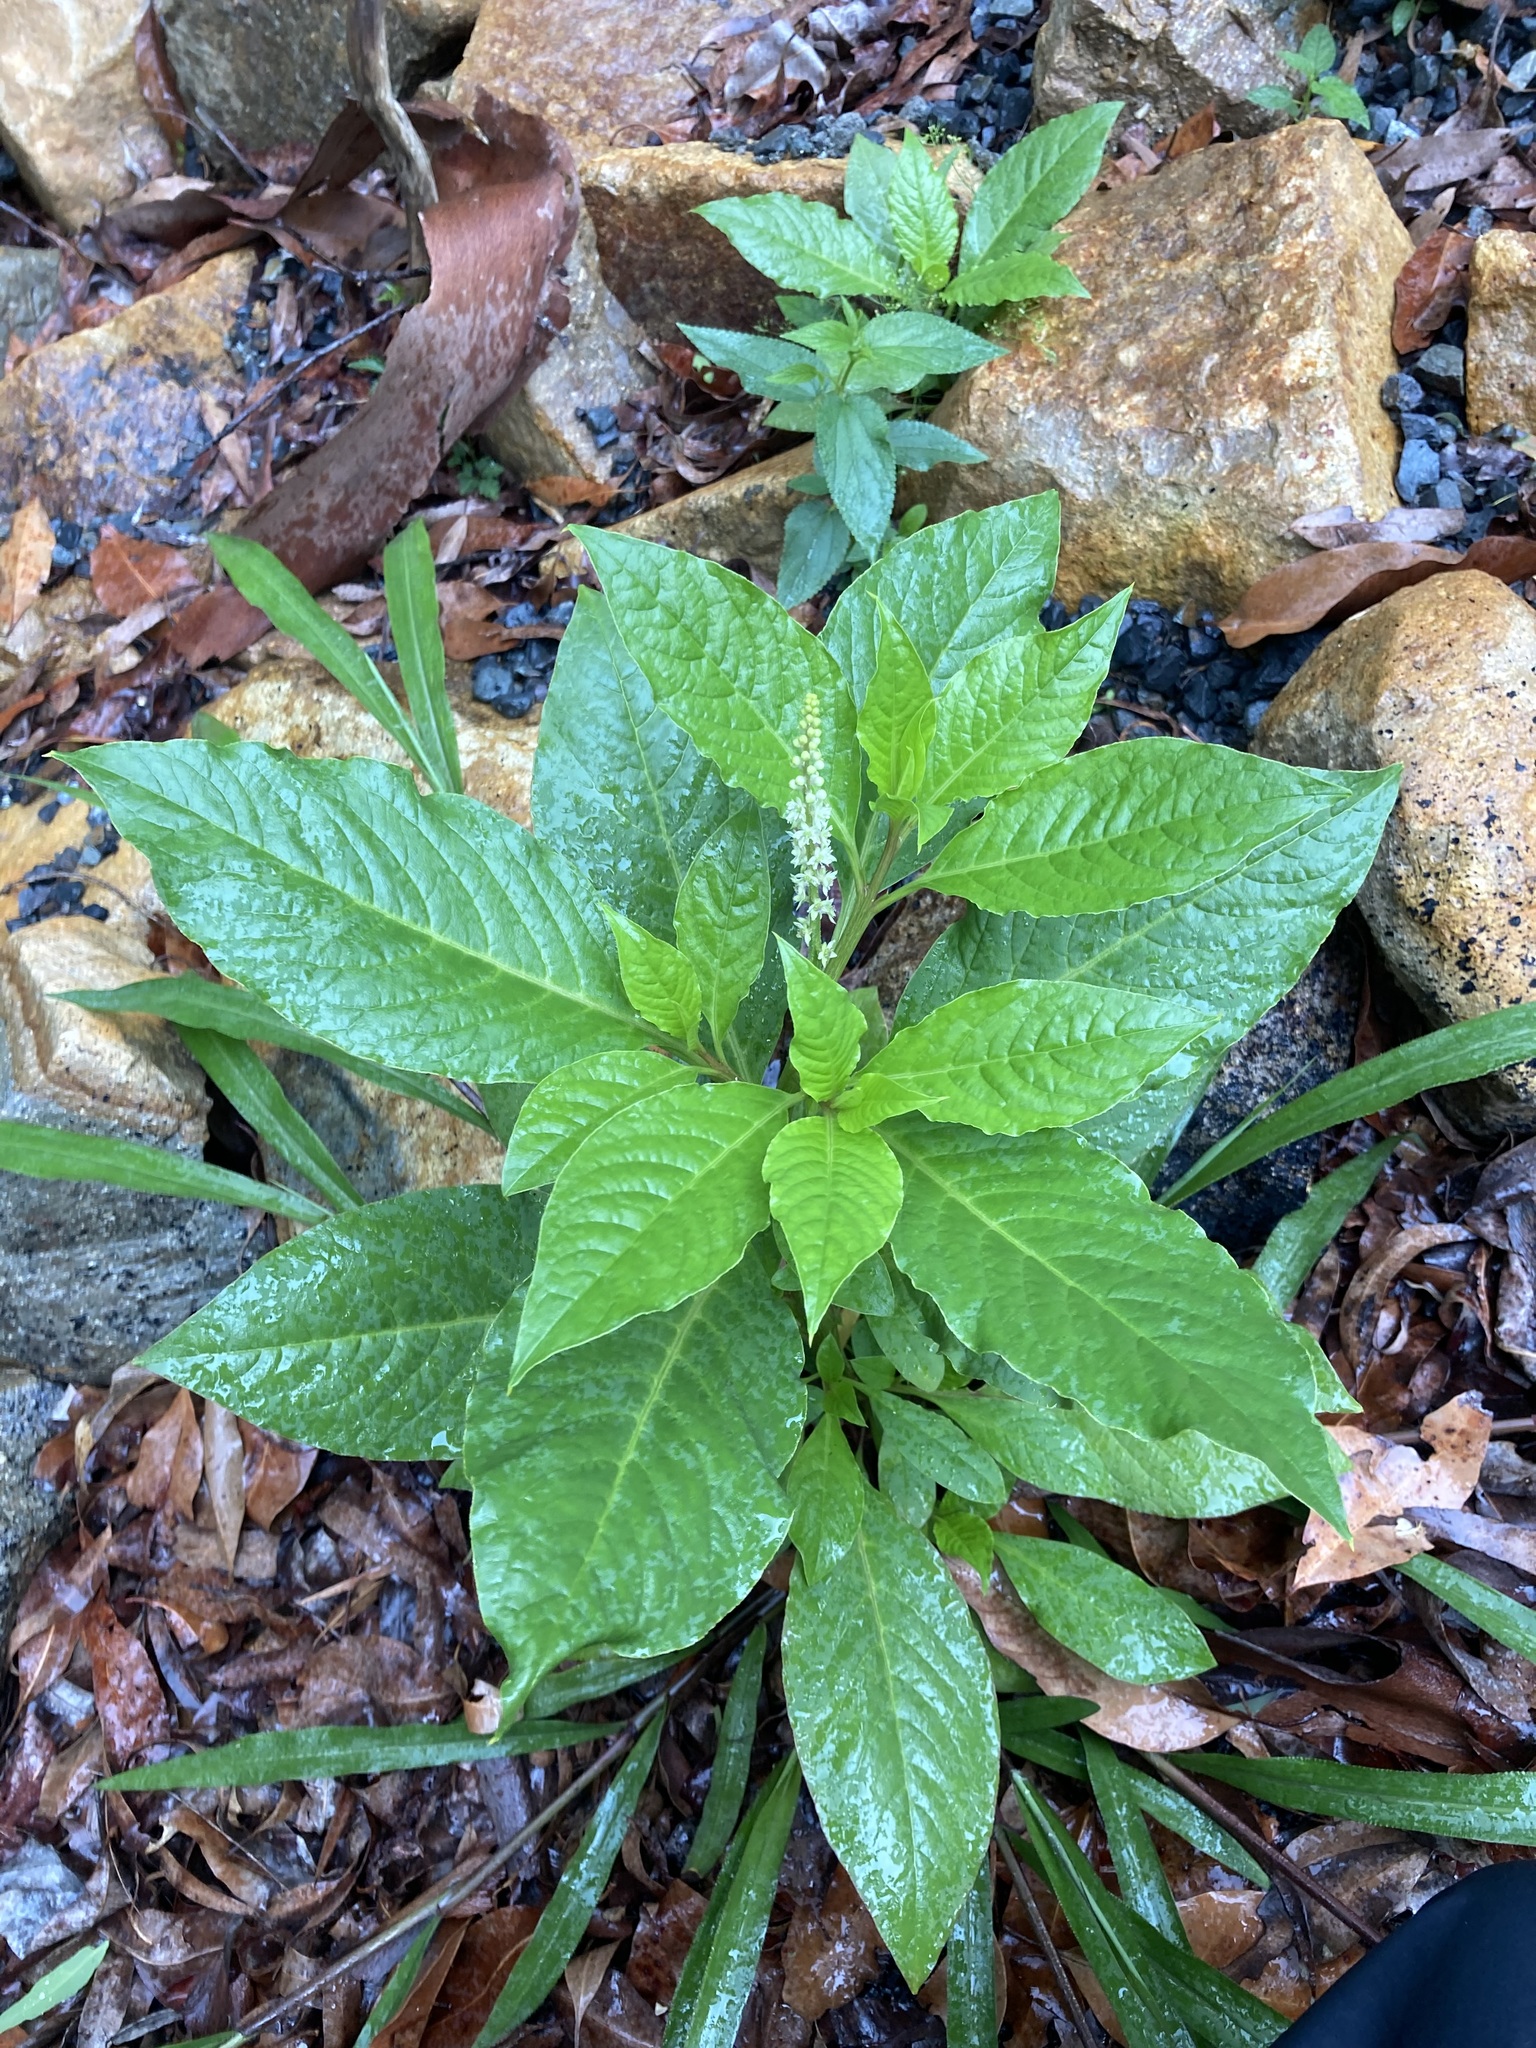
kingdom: Plantae
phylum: Tracheophyta
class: Magnoliopsida
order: Caryophyllales
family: Phytolaccaceae
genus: Phytolacca
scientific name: Phytolacca icosandra
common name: Button pokeweed
